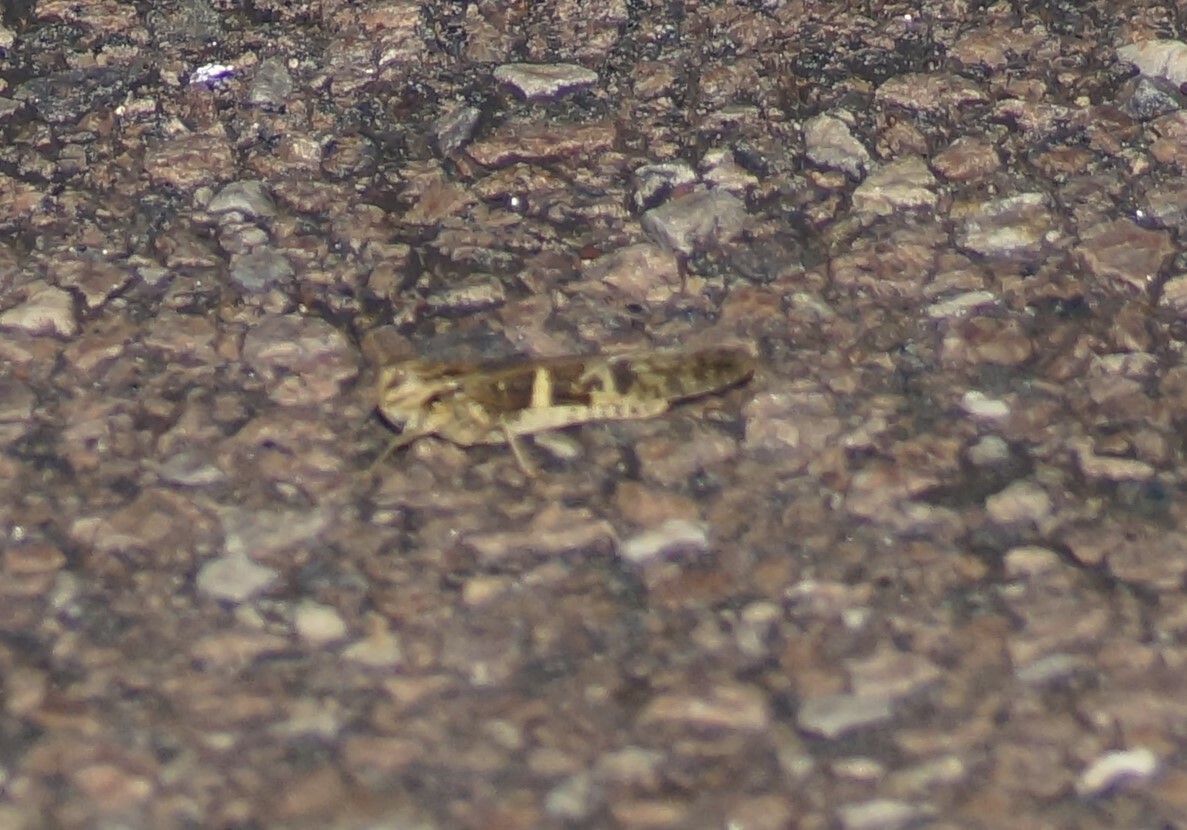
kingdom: Animalia
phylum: Arthropoda
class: Insecta
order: Orthoptera
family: Acrididae
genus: Gastrimargus
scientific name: Gastrimargus musicus
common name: Yellow-winged locust
